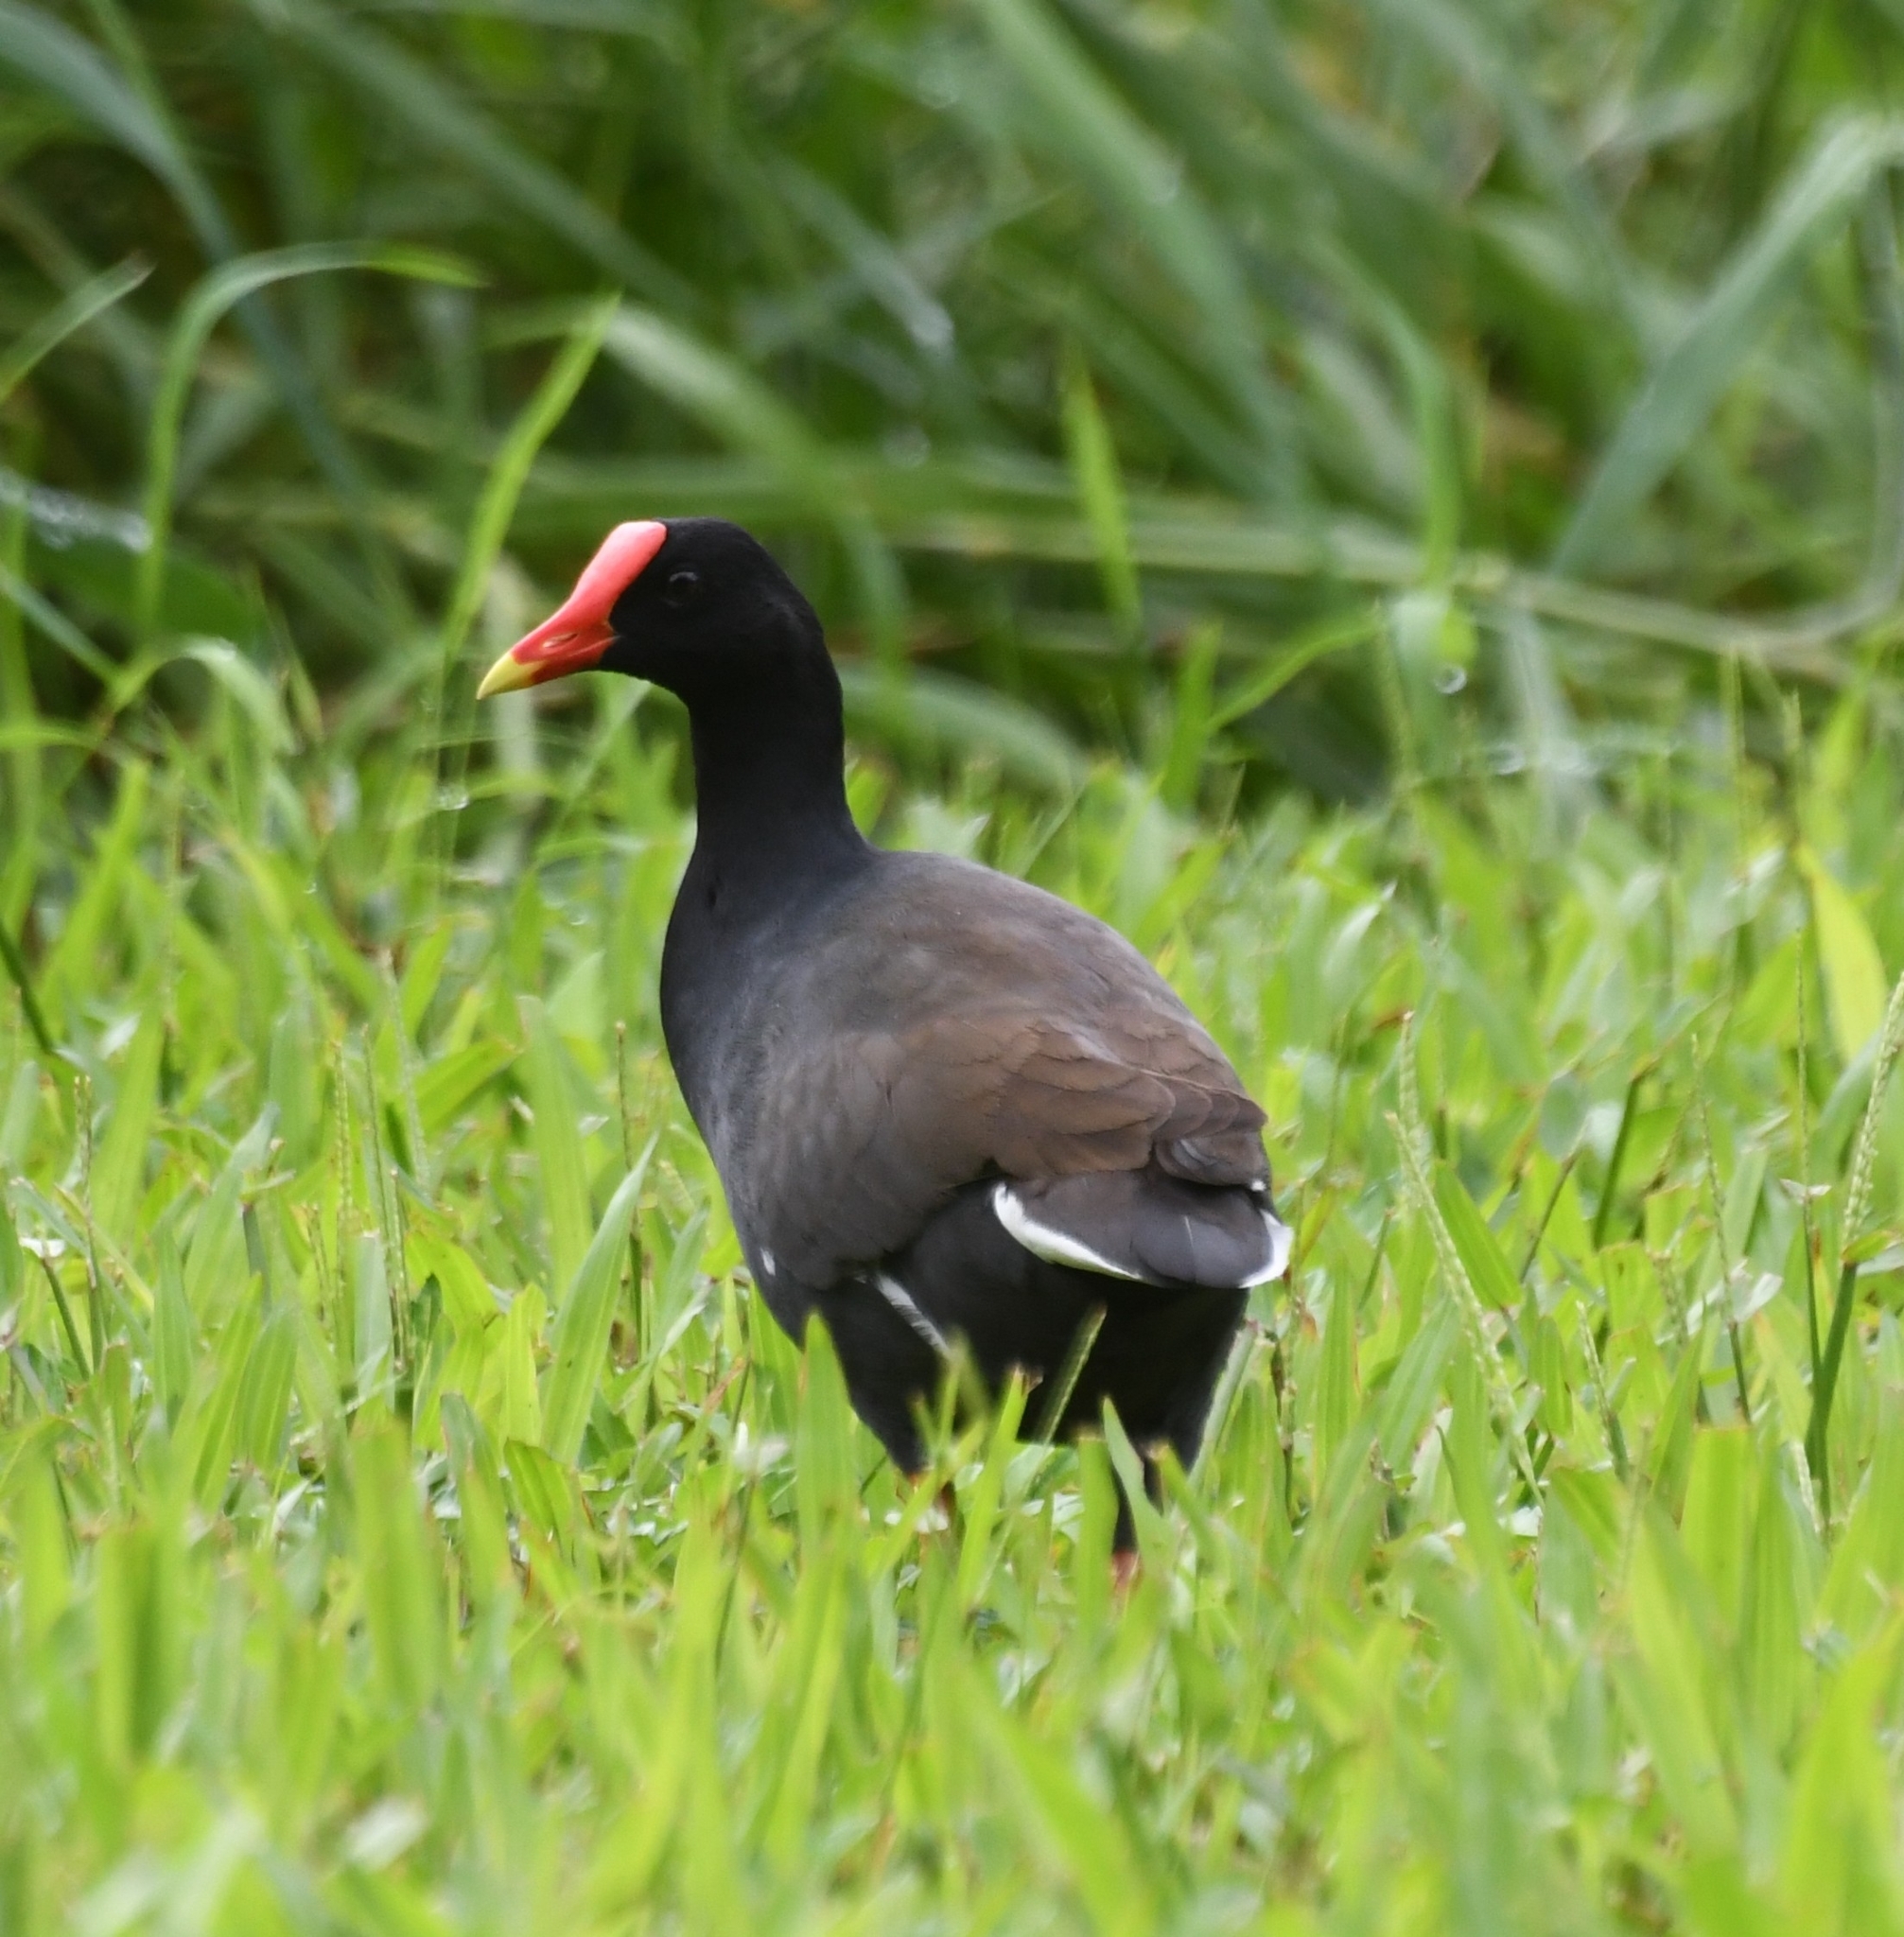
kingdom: Animalia
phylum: Chordata
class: Aves
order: Gruiformes
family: Rallidae
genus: Gallinula
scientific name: Gallinula chloropus
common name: Common moorhen
